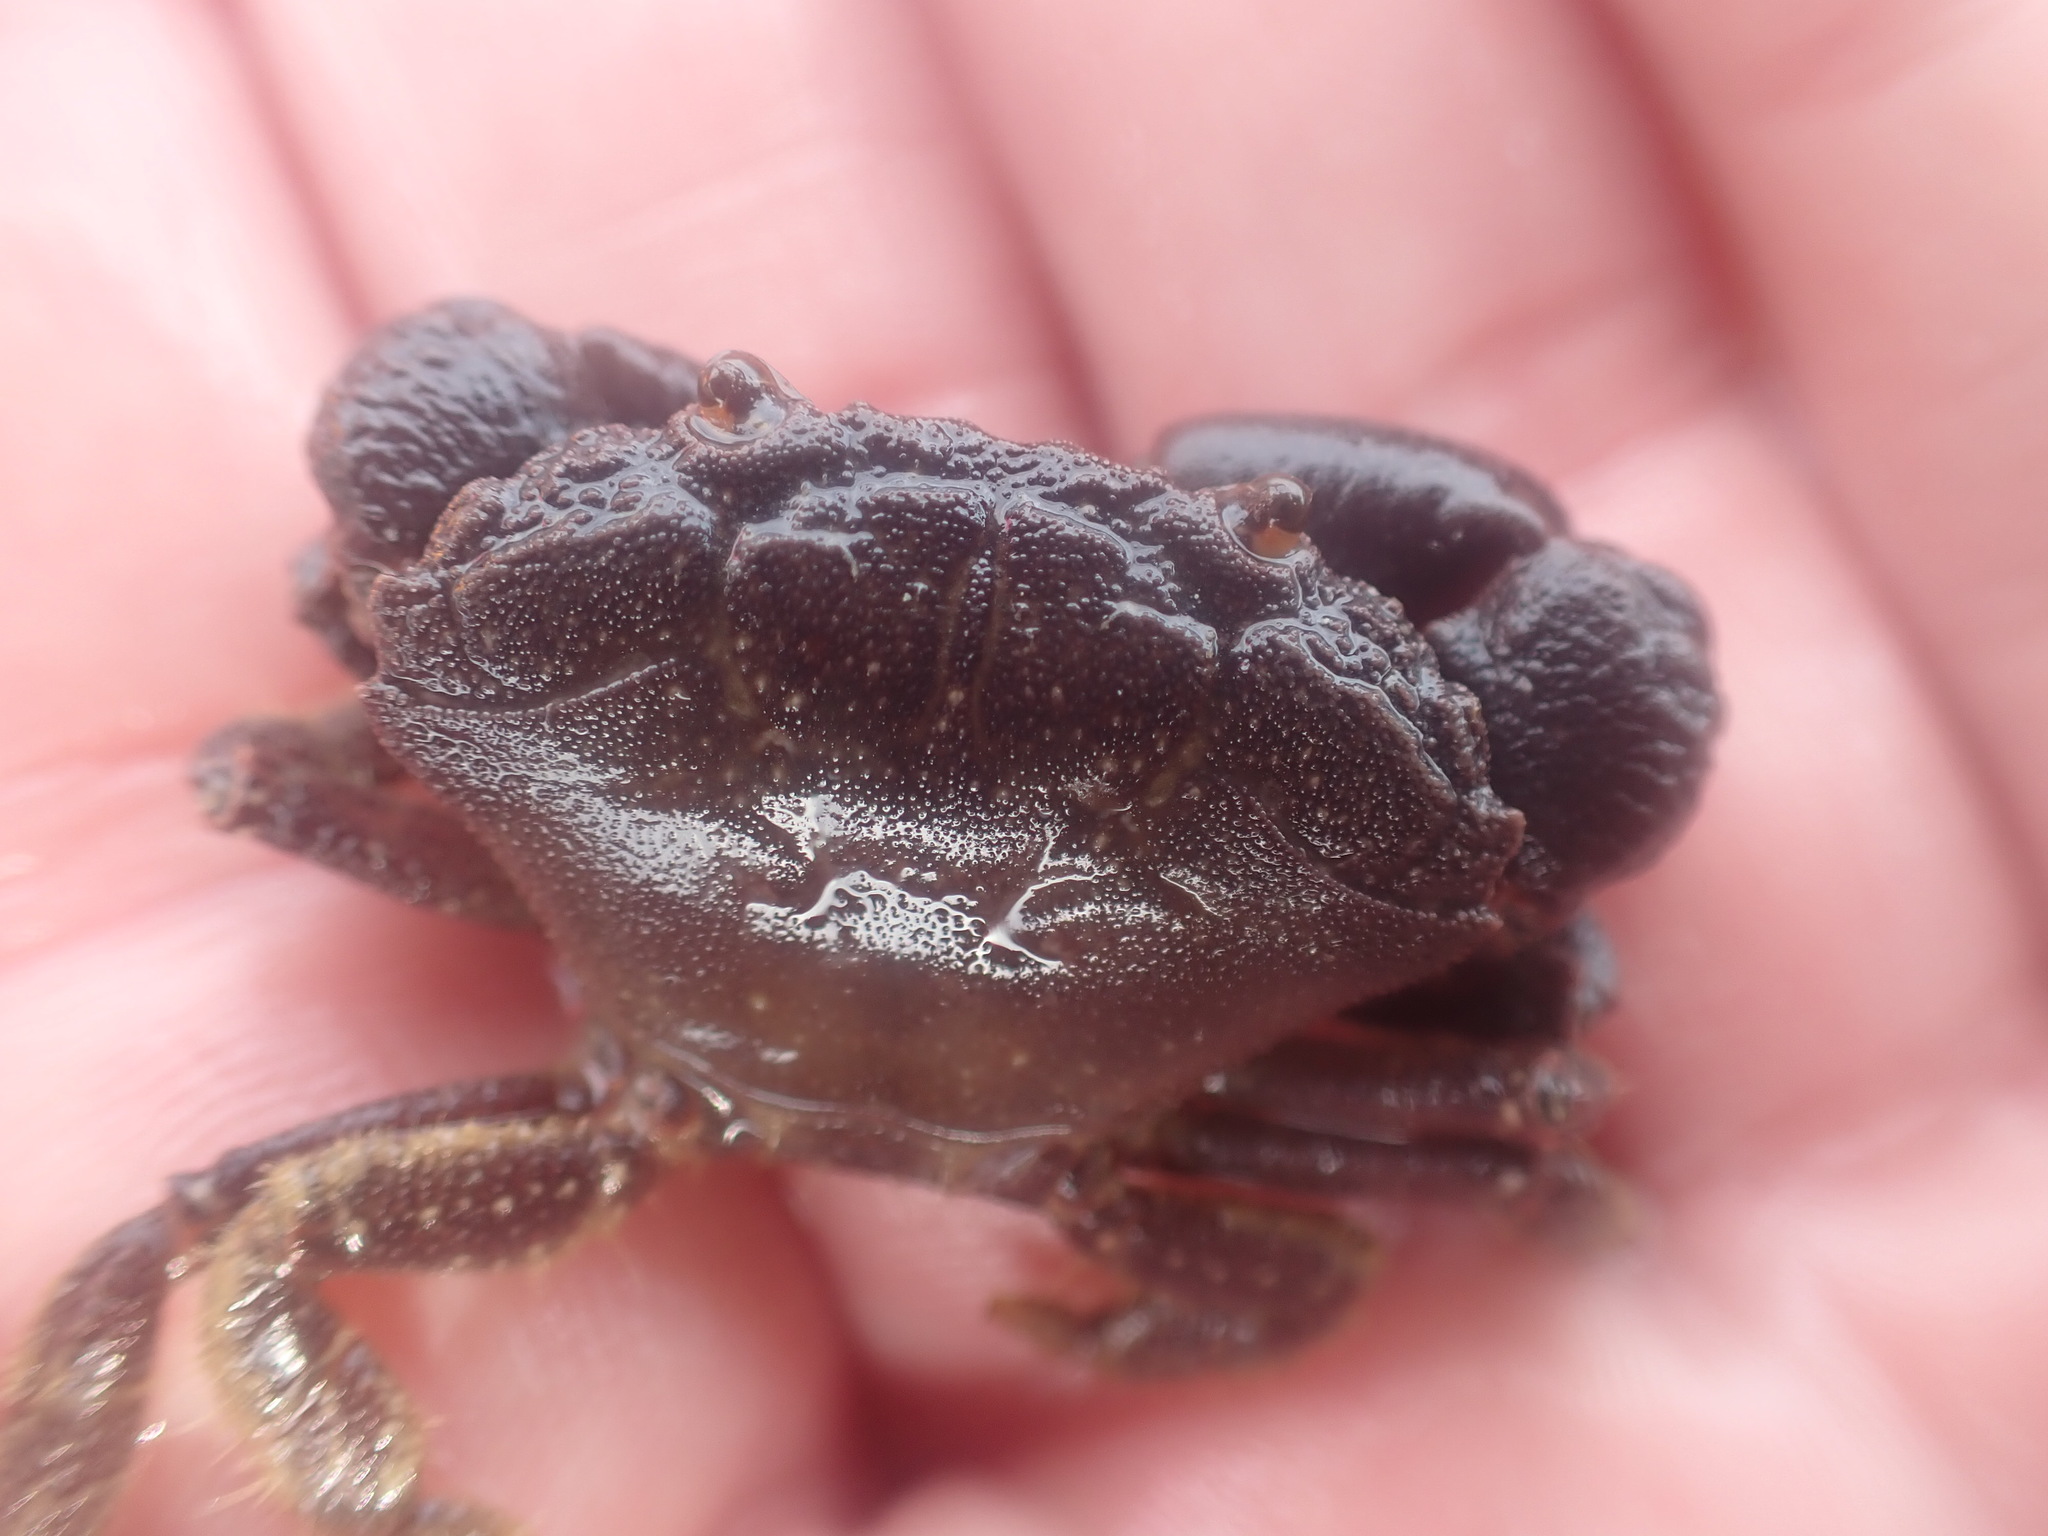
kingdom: Animalia
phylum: Arthropoda
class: Malacostraca
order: Decapoda
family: Oziidae
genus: Ozius
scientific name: Ozius deplanatus
